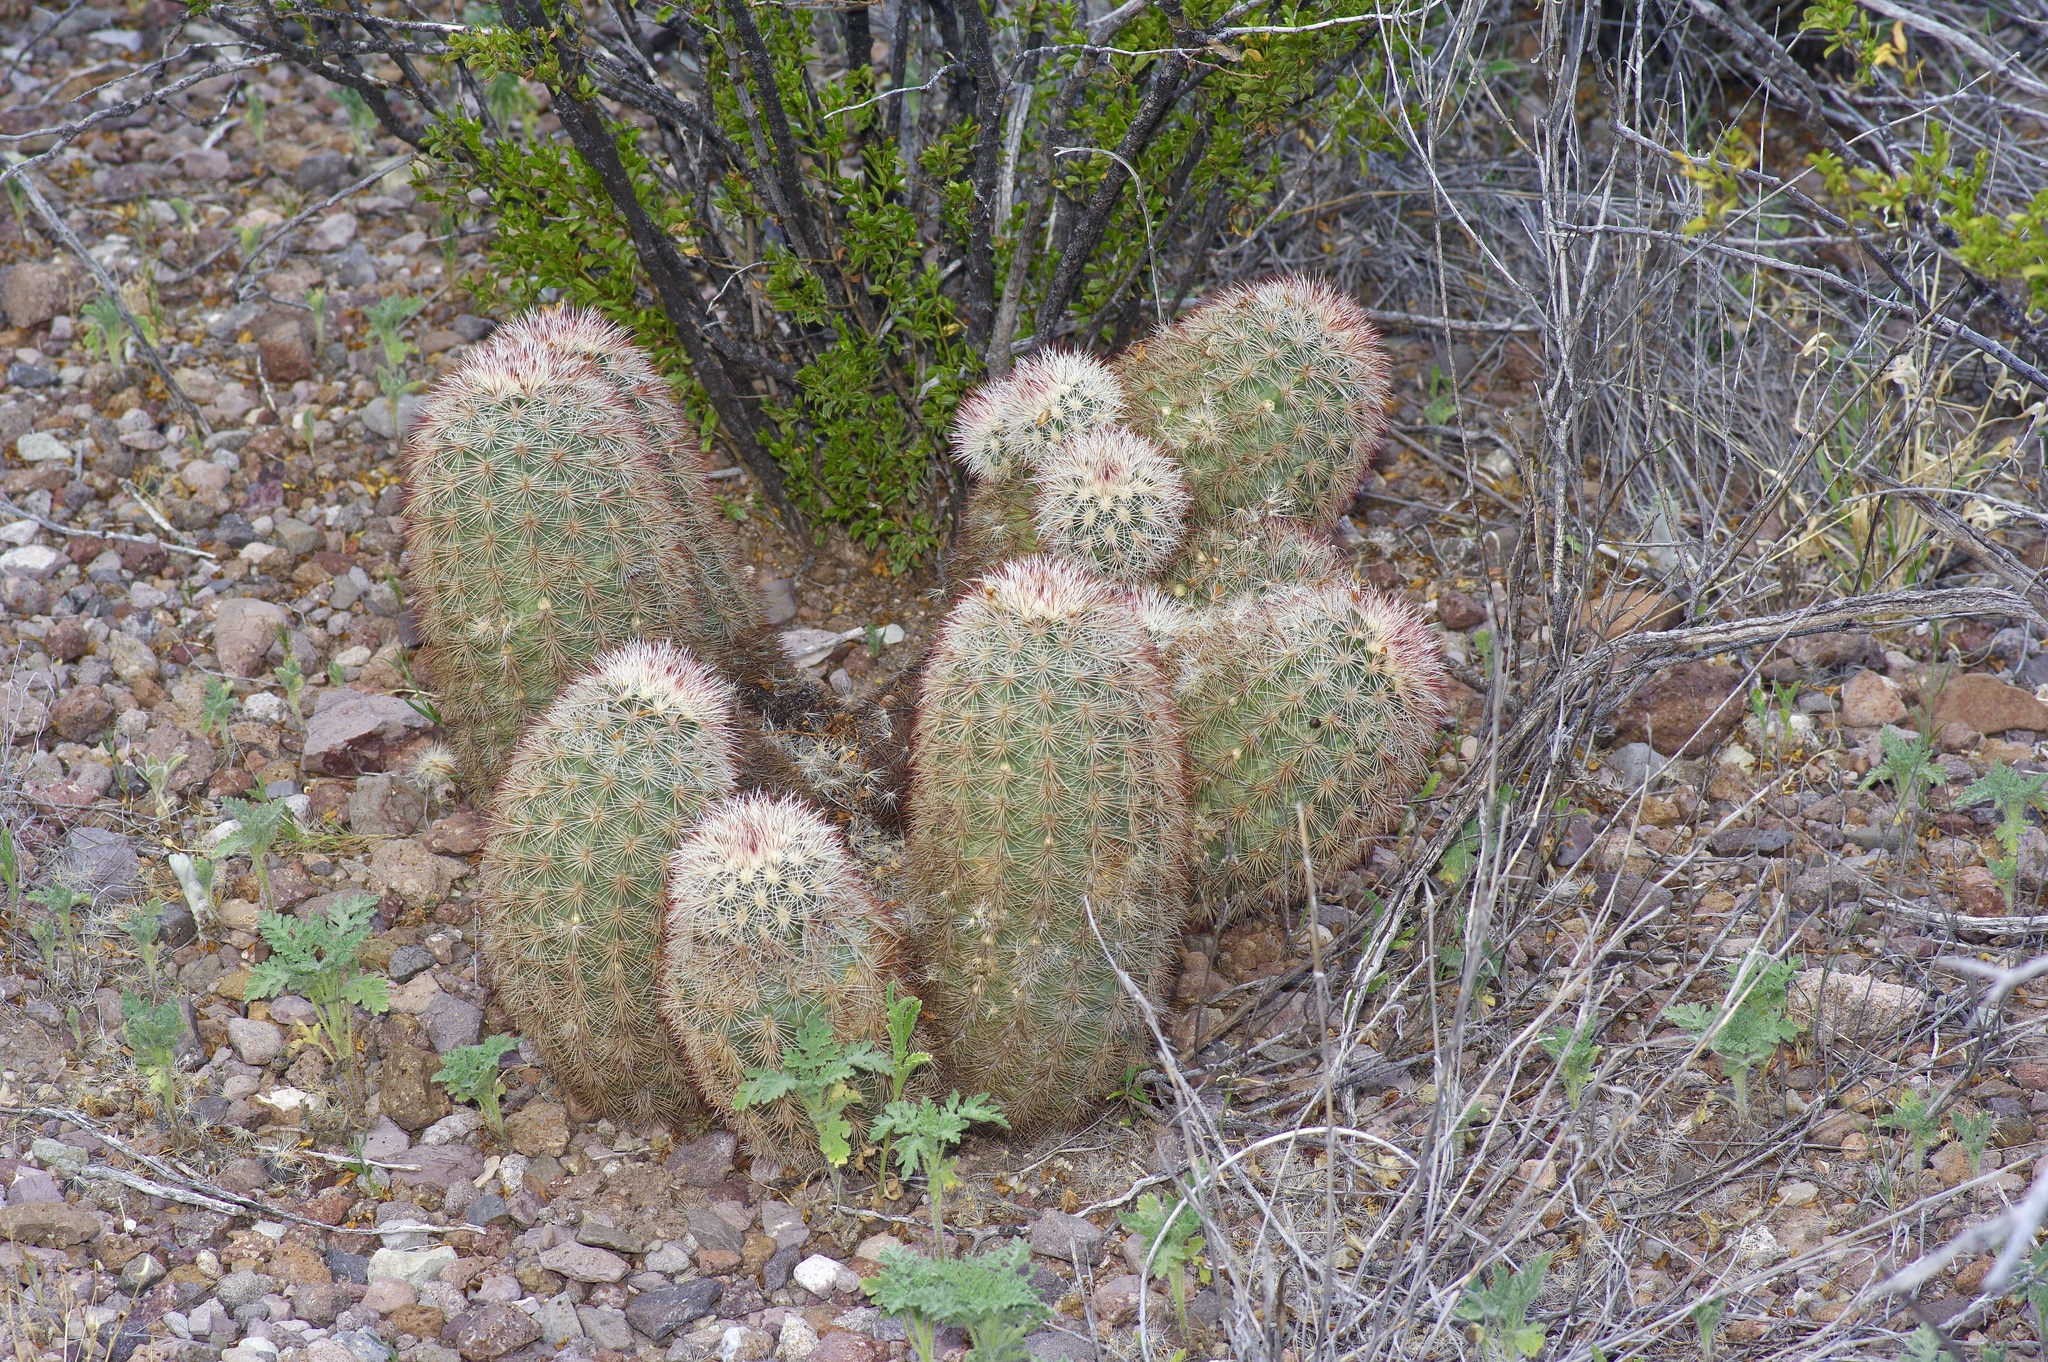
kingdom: Plantae
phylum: Tracheophyta
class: Magnoliopsida
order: Caryophyllales
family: Cactaceae
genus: Echinocereus
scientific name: Echinocereus russanthus
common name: Brownspine hedgehog cactus
